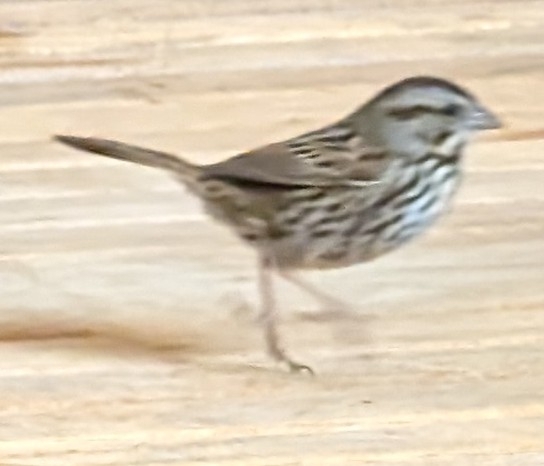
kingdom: Animalia
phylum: Chordata
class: Aves
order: Passeriformes
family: Passerellidae
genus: Melospiza
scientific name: Melospiza melodia
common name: Song sparrow
